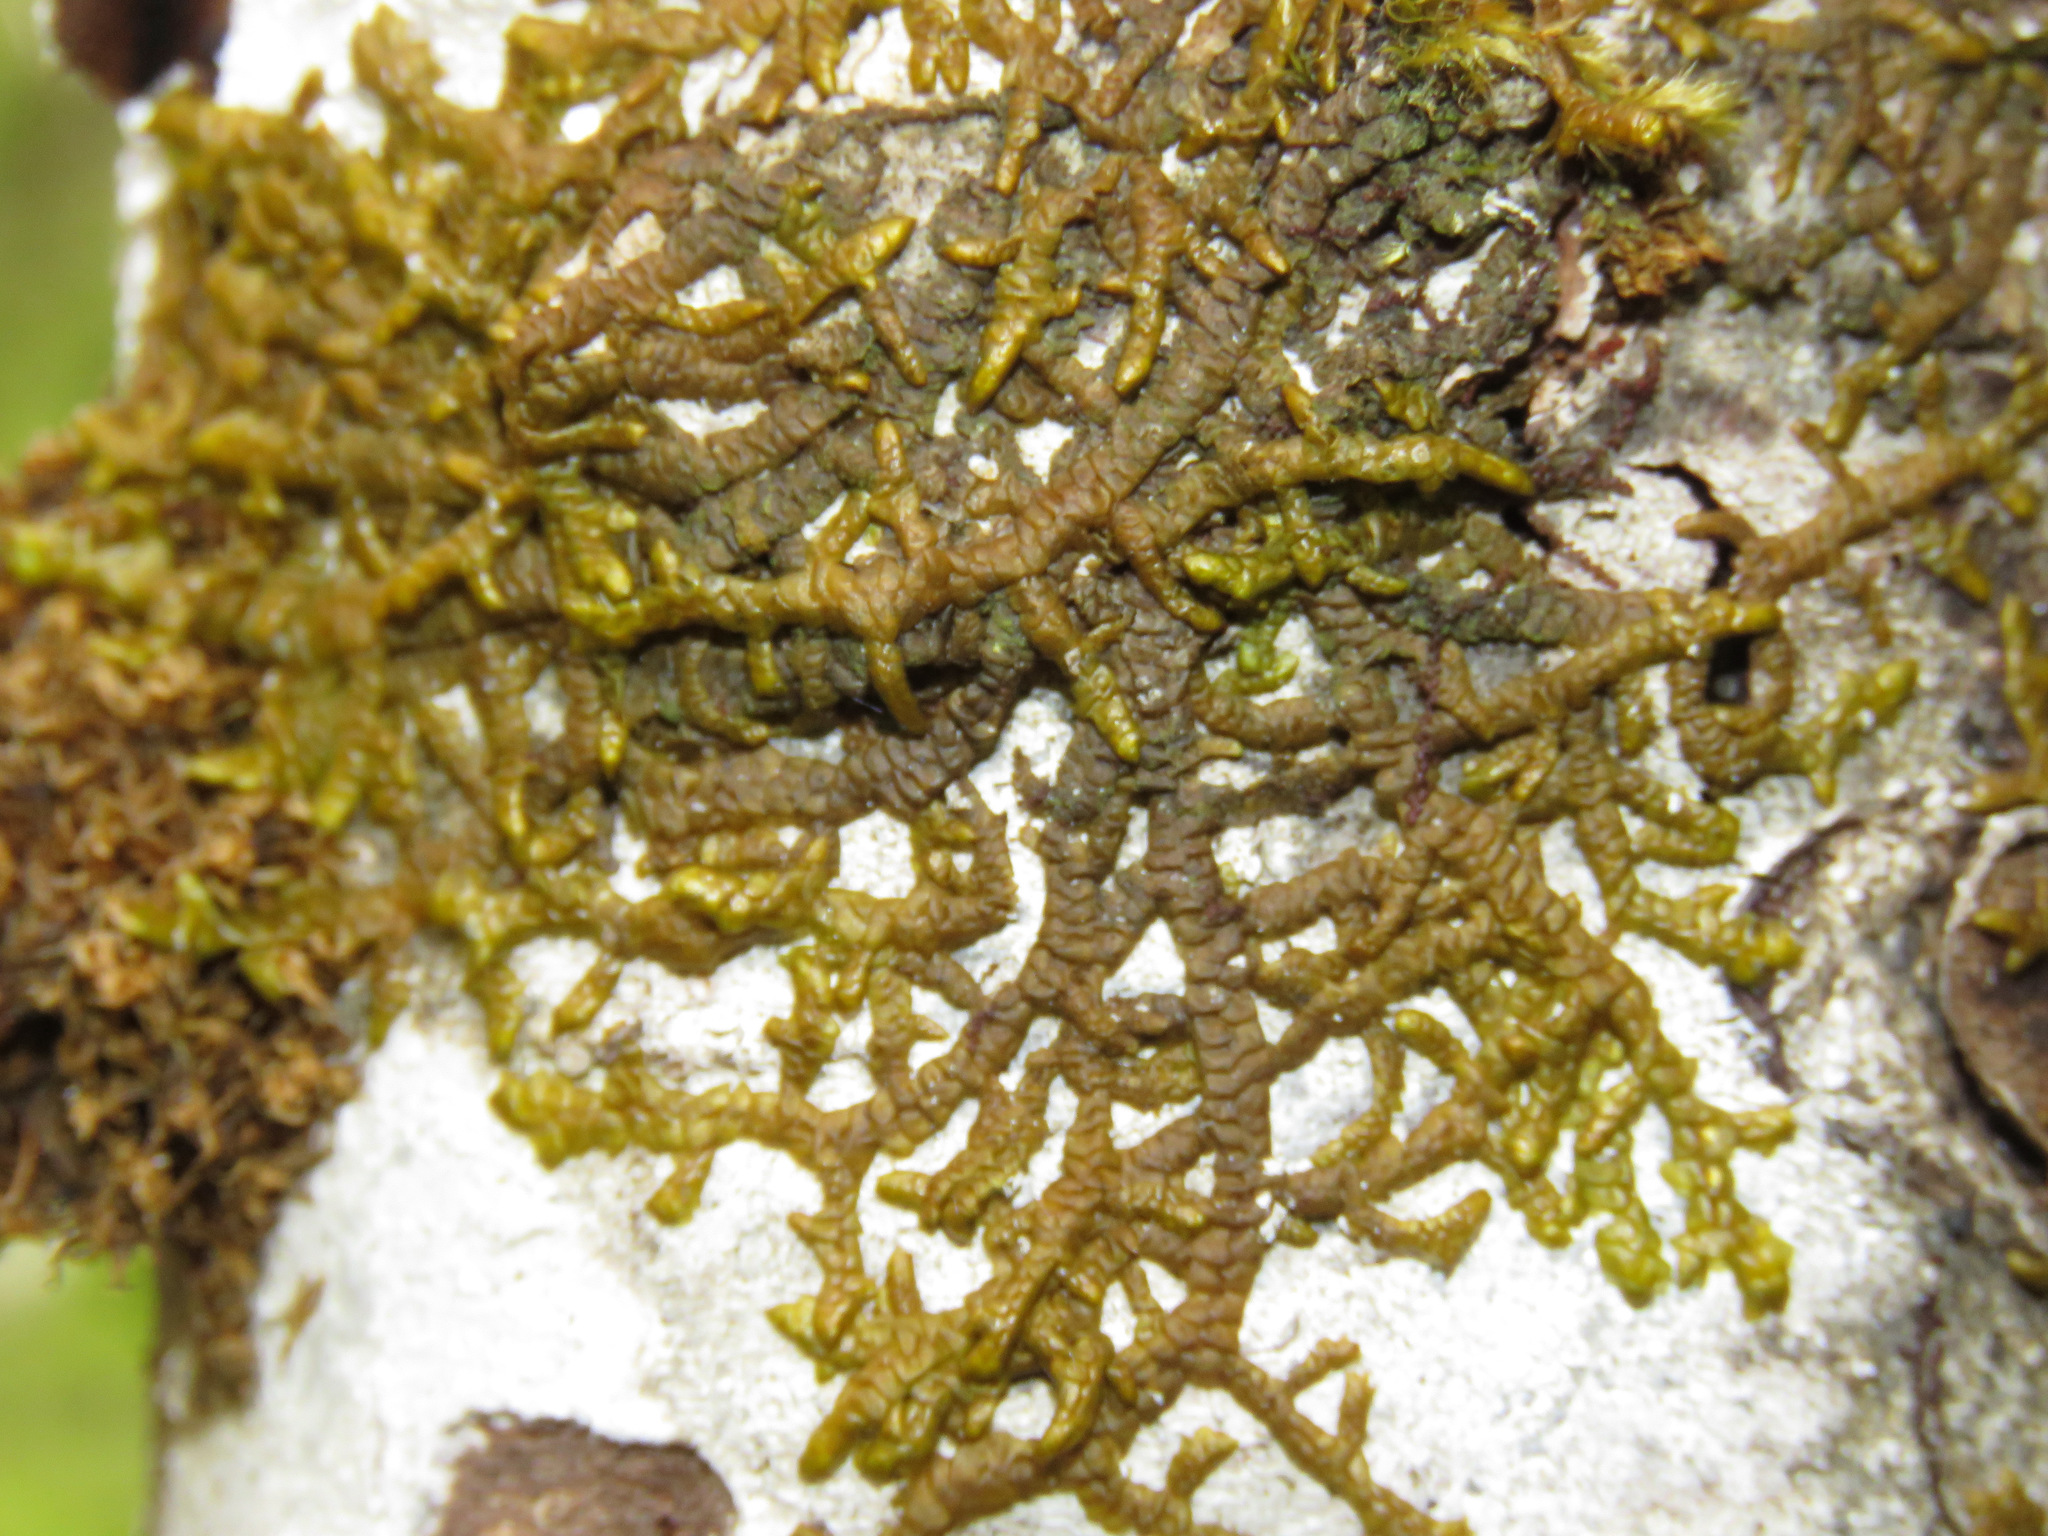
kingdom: Plantae
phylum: Marchantiophyta
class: Jungermanniopsida
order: Porellales
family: Porellaceae
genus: Porella
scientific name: Porella navicularis
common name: Tree ruffle liverwort
